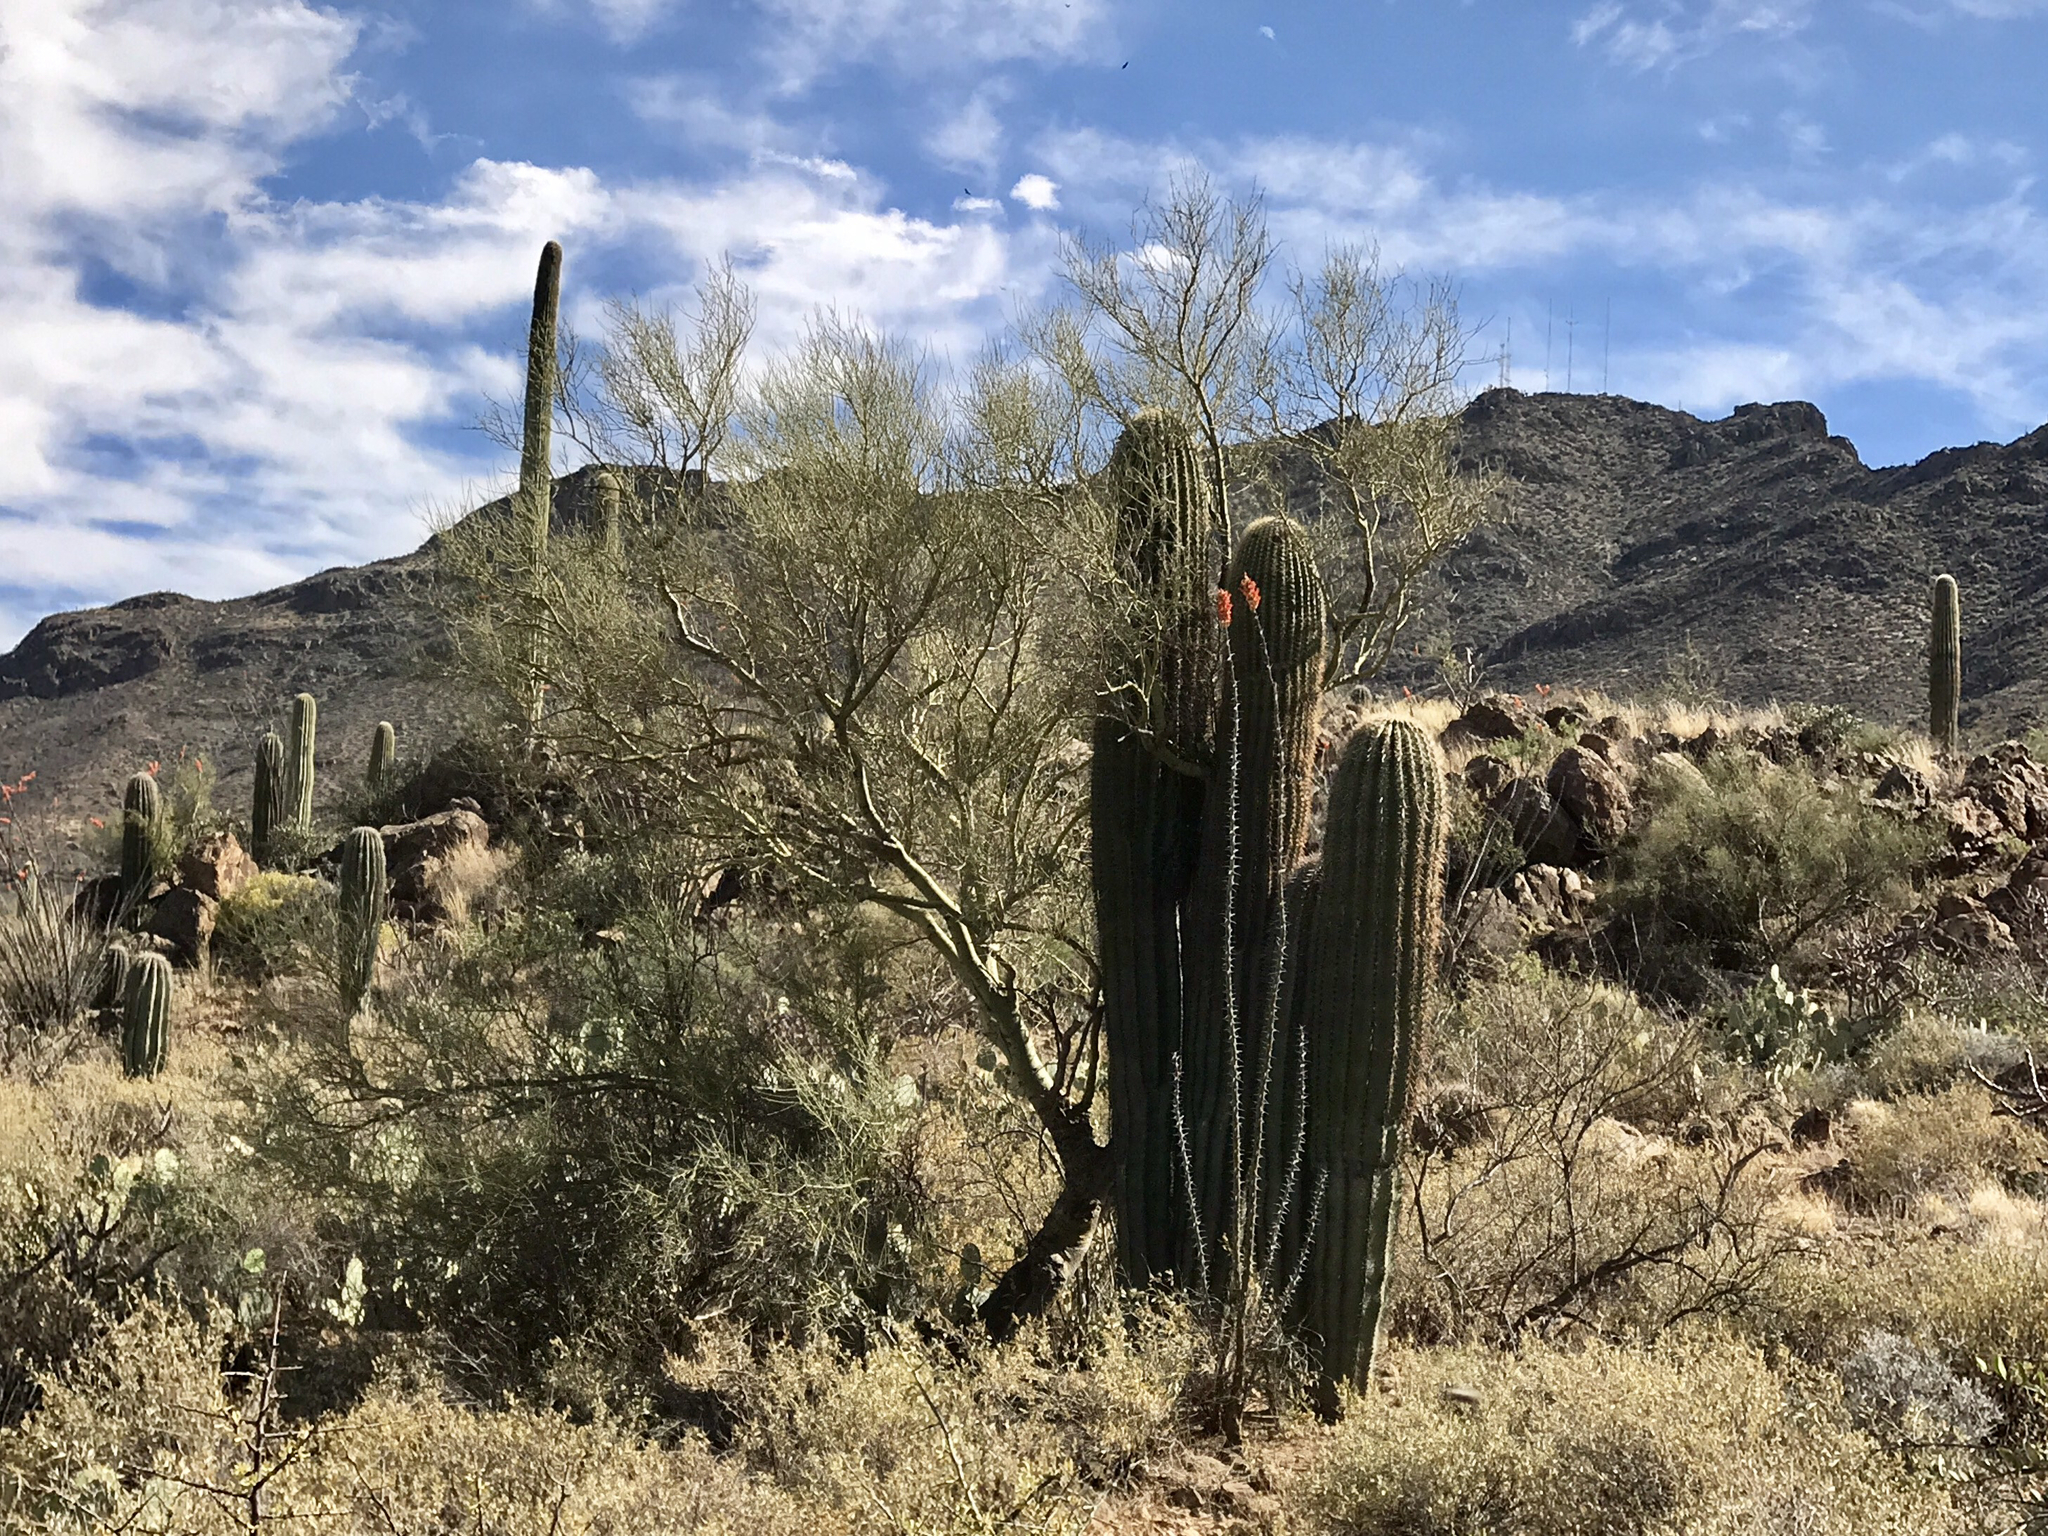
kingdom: Plantae
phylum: Tracheophyta
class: Magnoliopsida
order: Fabales
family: Fabaceae
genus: Parkinsonia
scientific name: Parkinsonia microphylla
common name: Yellow paloverde
